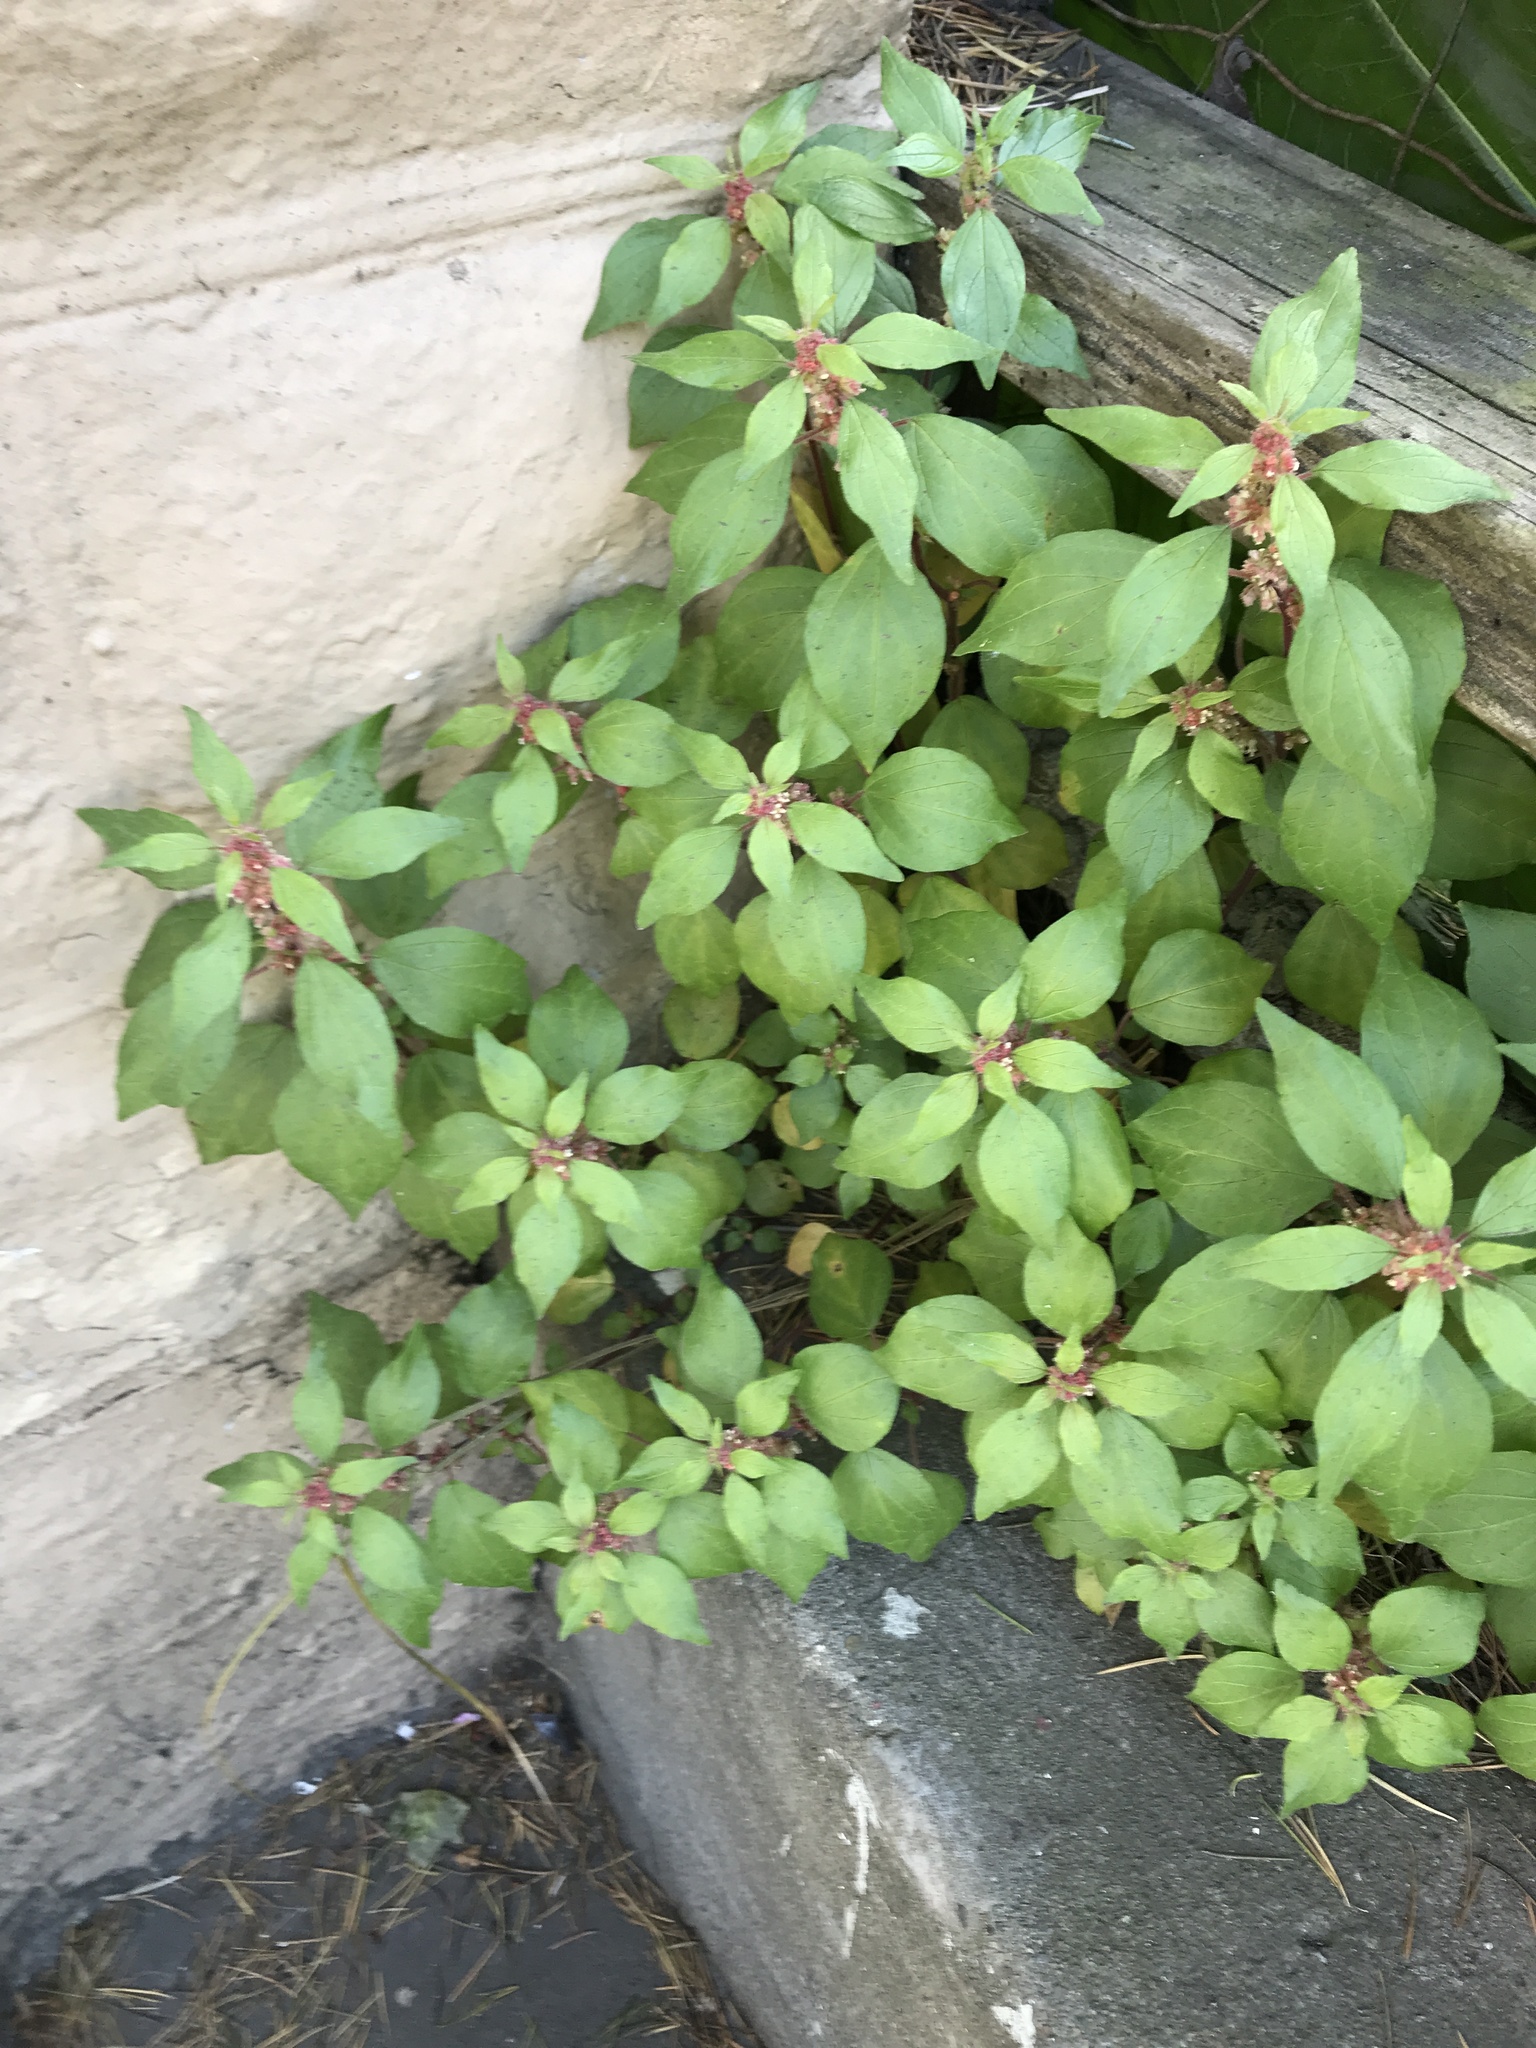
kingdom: Plantae
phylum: Tracheophyta
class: Magnoliopsida
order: Rosales
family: Urticaceae
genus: Parietaria
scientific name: Parietaria judaica
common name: Pellitory-of-the-wall
